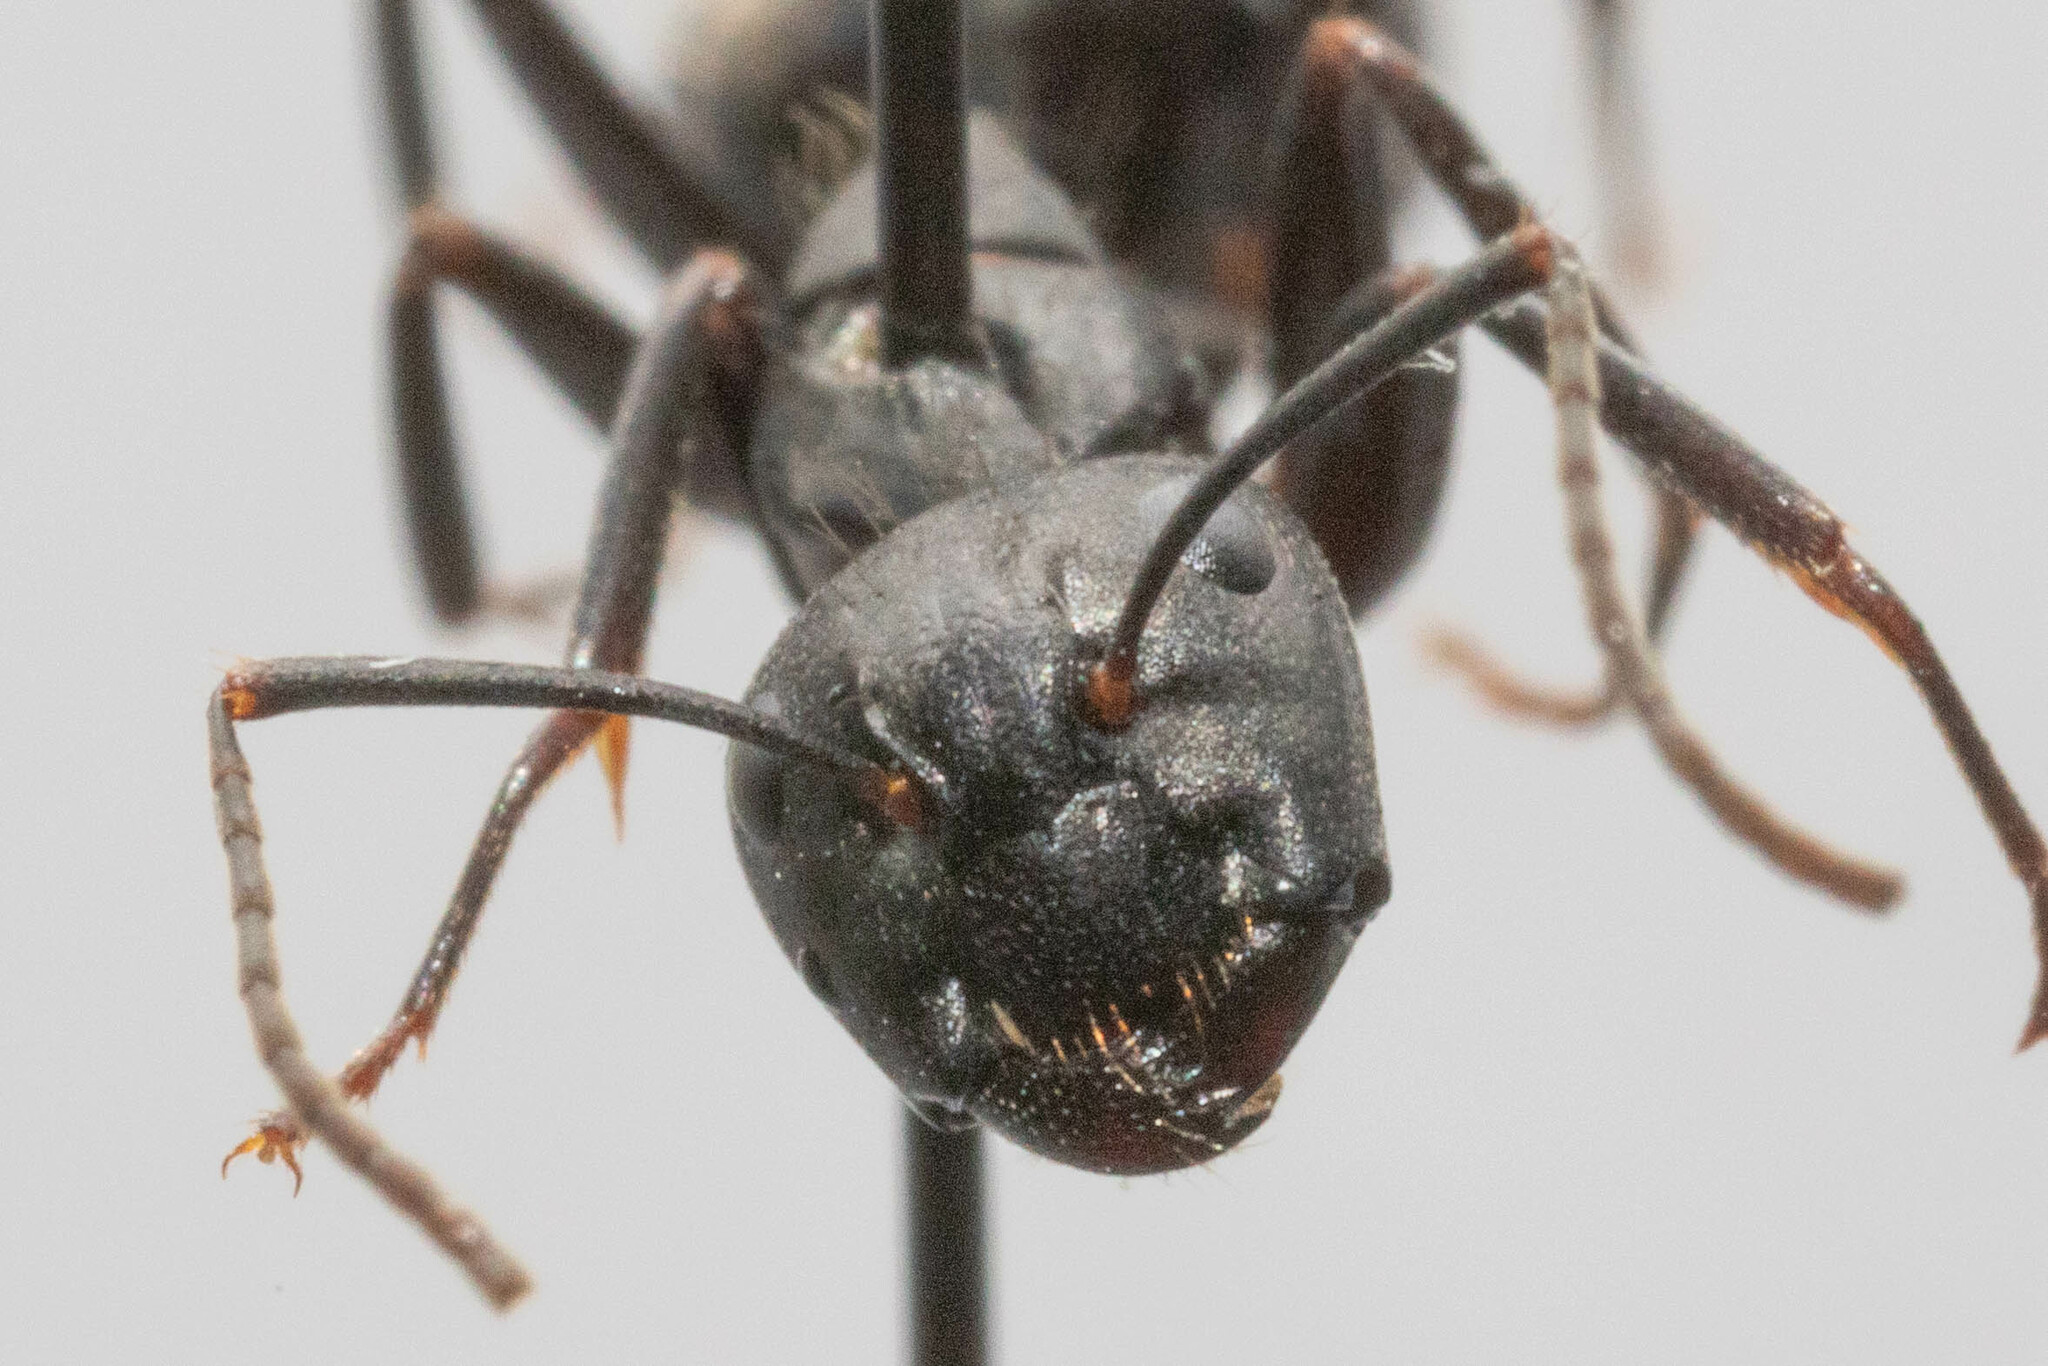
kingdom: Animalia
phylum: Arthropoda
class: Insecta
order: Hymenoptera
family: Formicidae
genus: Camponotus
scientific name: Camponotus pennsylvanicus
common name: Black carpenter ant
